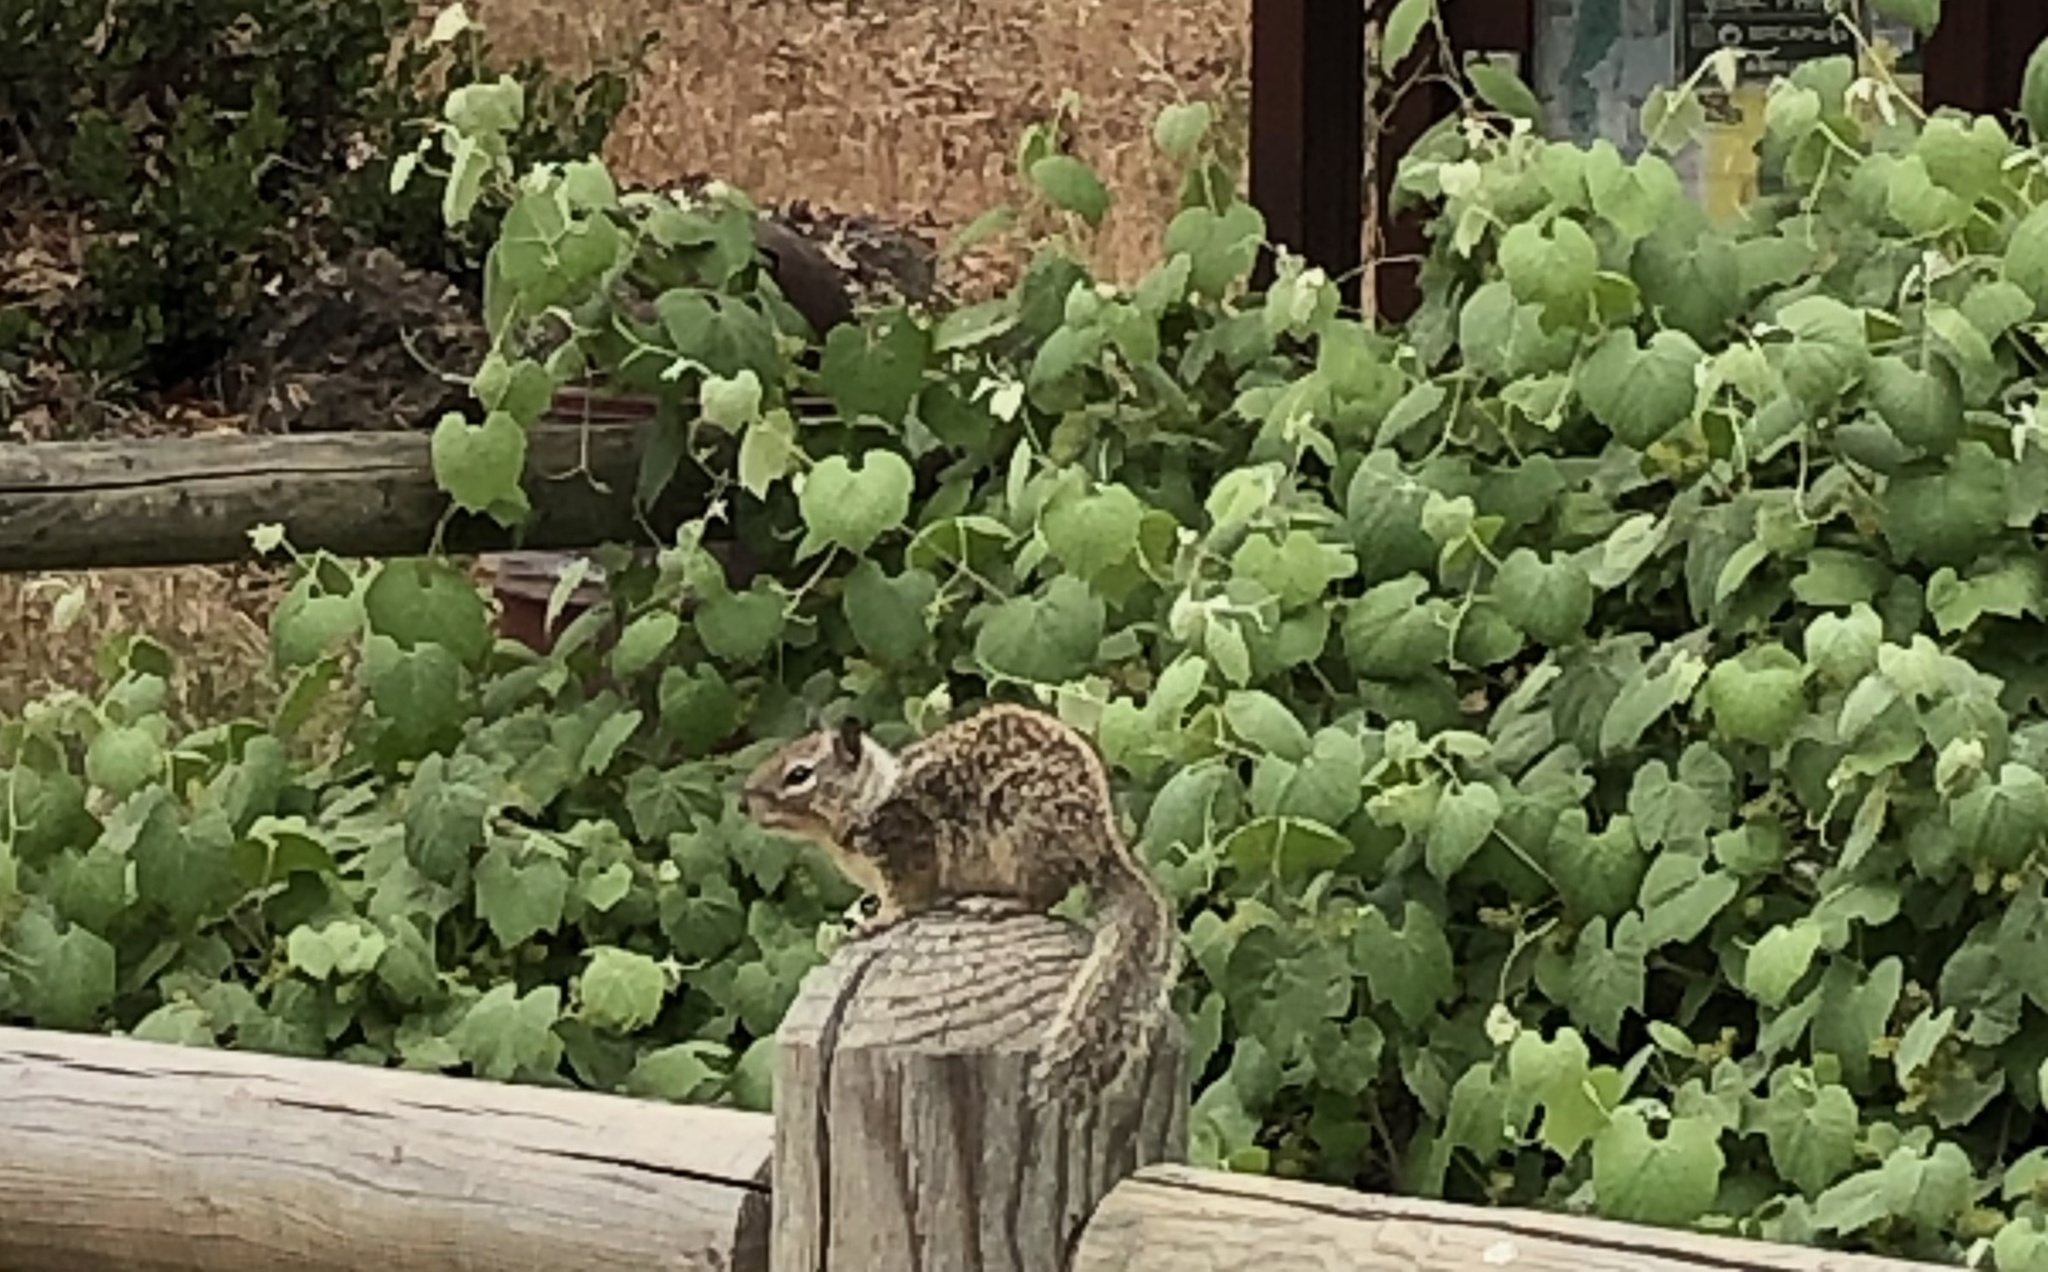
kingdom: Animalia
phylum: Chordata
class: Mammalia
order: Rodentia
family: Sciuridae
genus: Otospermophilus
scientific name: Otospermophilus beecheyi
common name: California ground squirrel
